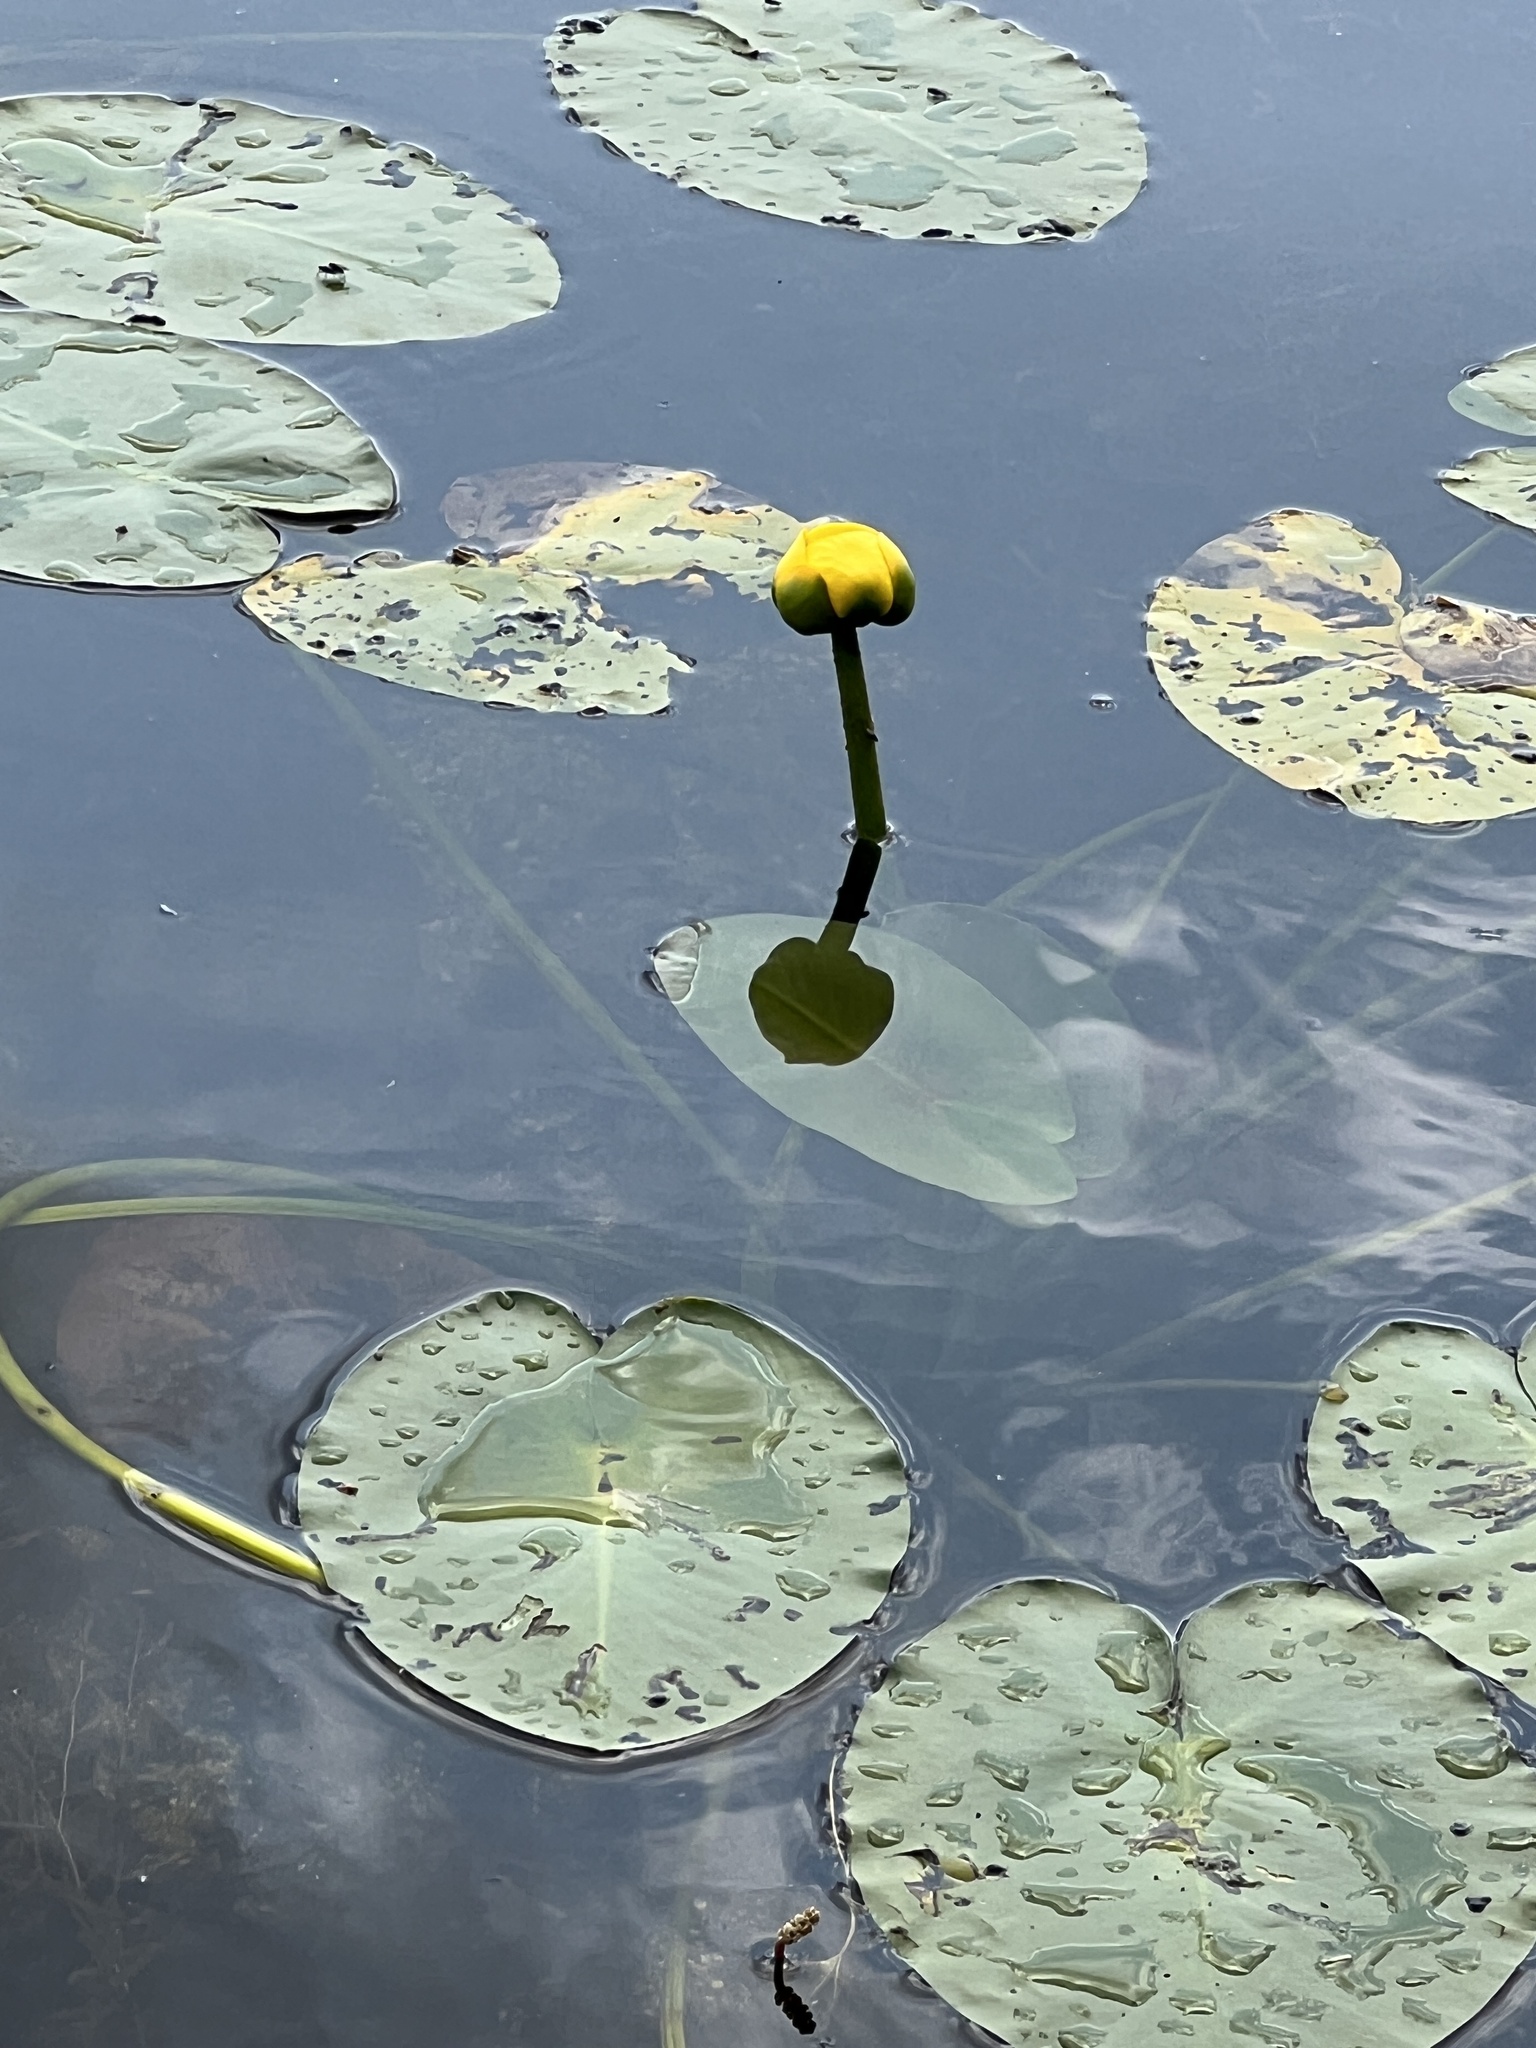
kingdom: Plantae
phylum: Tracheophyta
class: Magnoliopsida
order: Nymphaeales
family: Nymphaeaceae
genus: Nuphar
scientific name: Nuphar variegata
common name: Beaver-root
